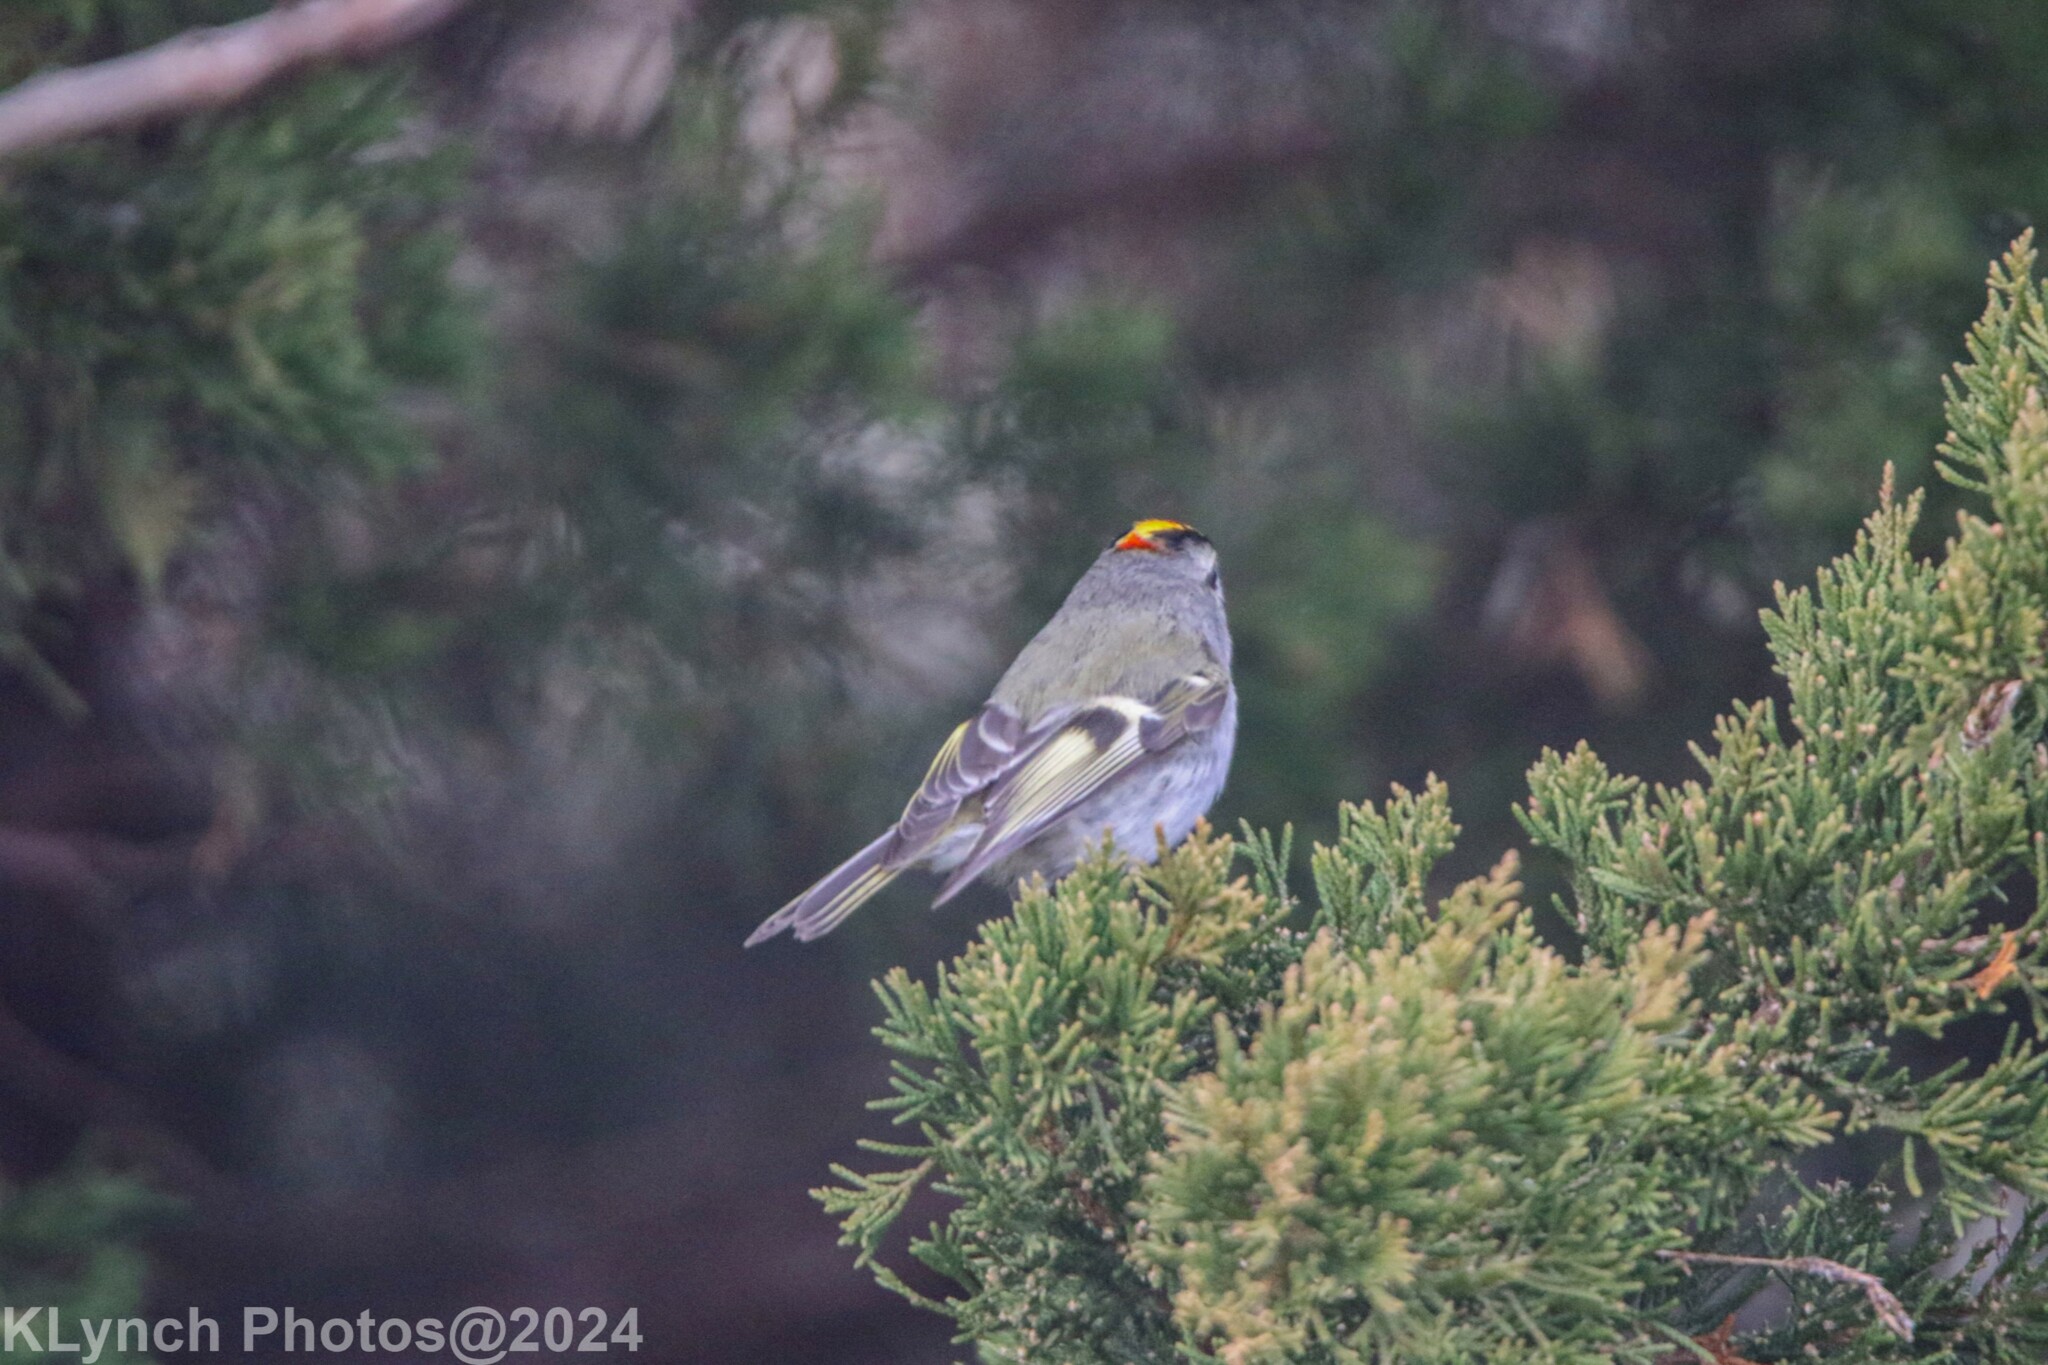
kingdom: Animalia
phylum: Chordata
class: Aves
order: Passeriformes
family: Regulidae
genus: Regulus
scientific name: Regulus satrapa
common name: Golden-crowned kinglet
